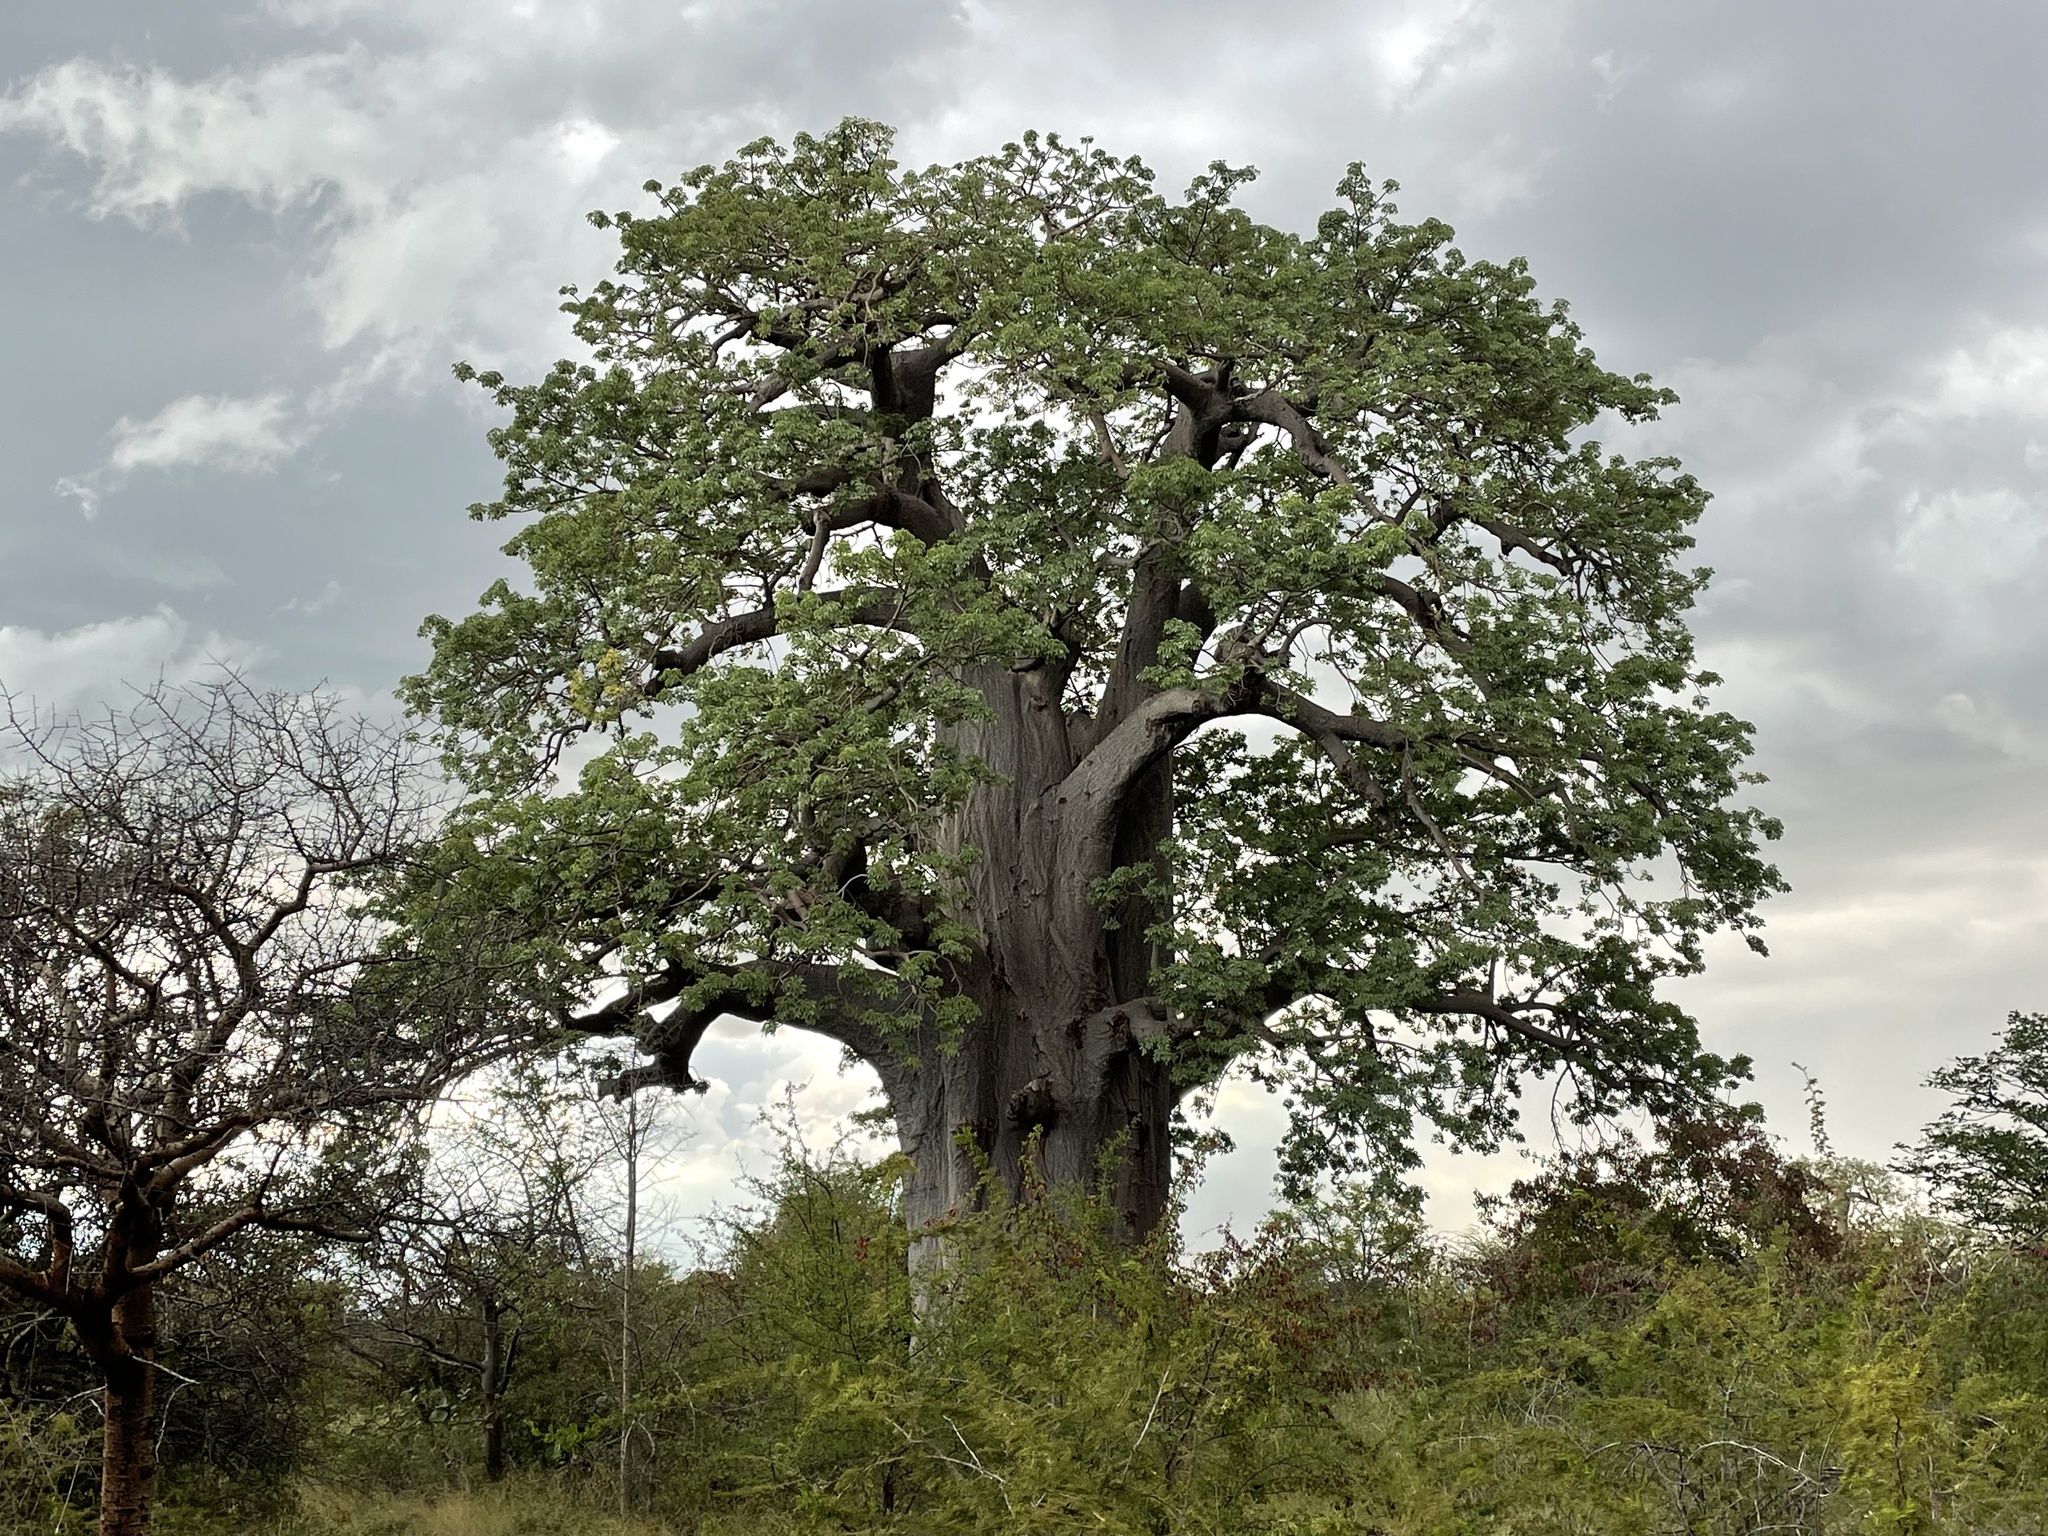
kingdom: Plantae
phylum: Tracheophyta
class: Magnoliopsida
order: Malvales
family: Malvaceae
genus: Adansonia
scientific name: Adansonia digitata
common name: Dead-rat-tree
